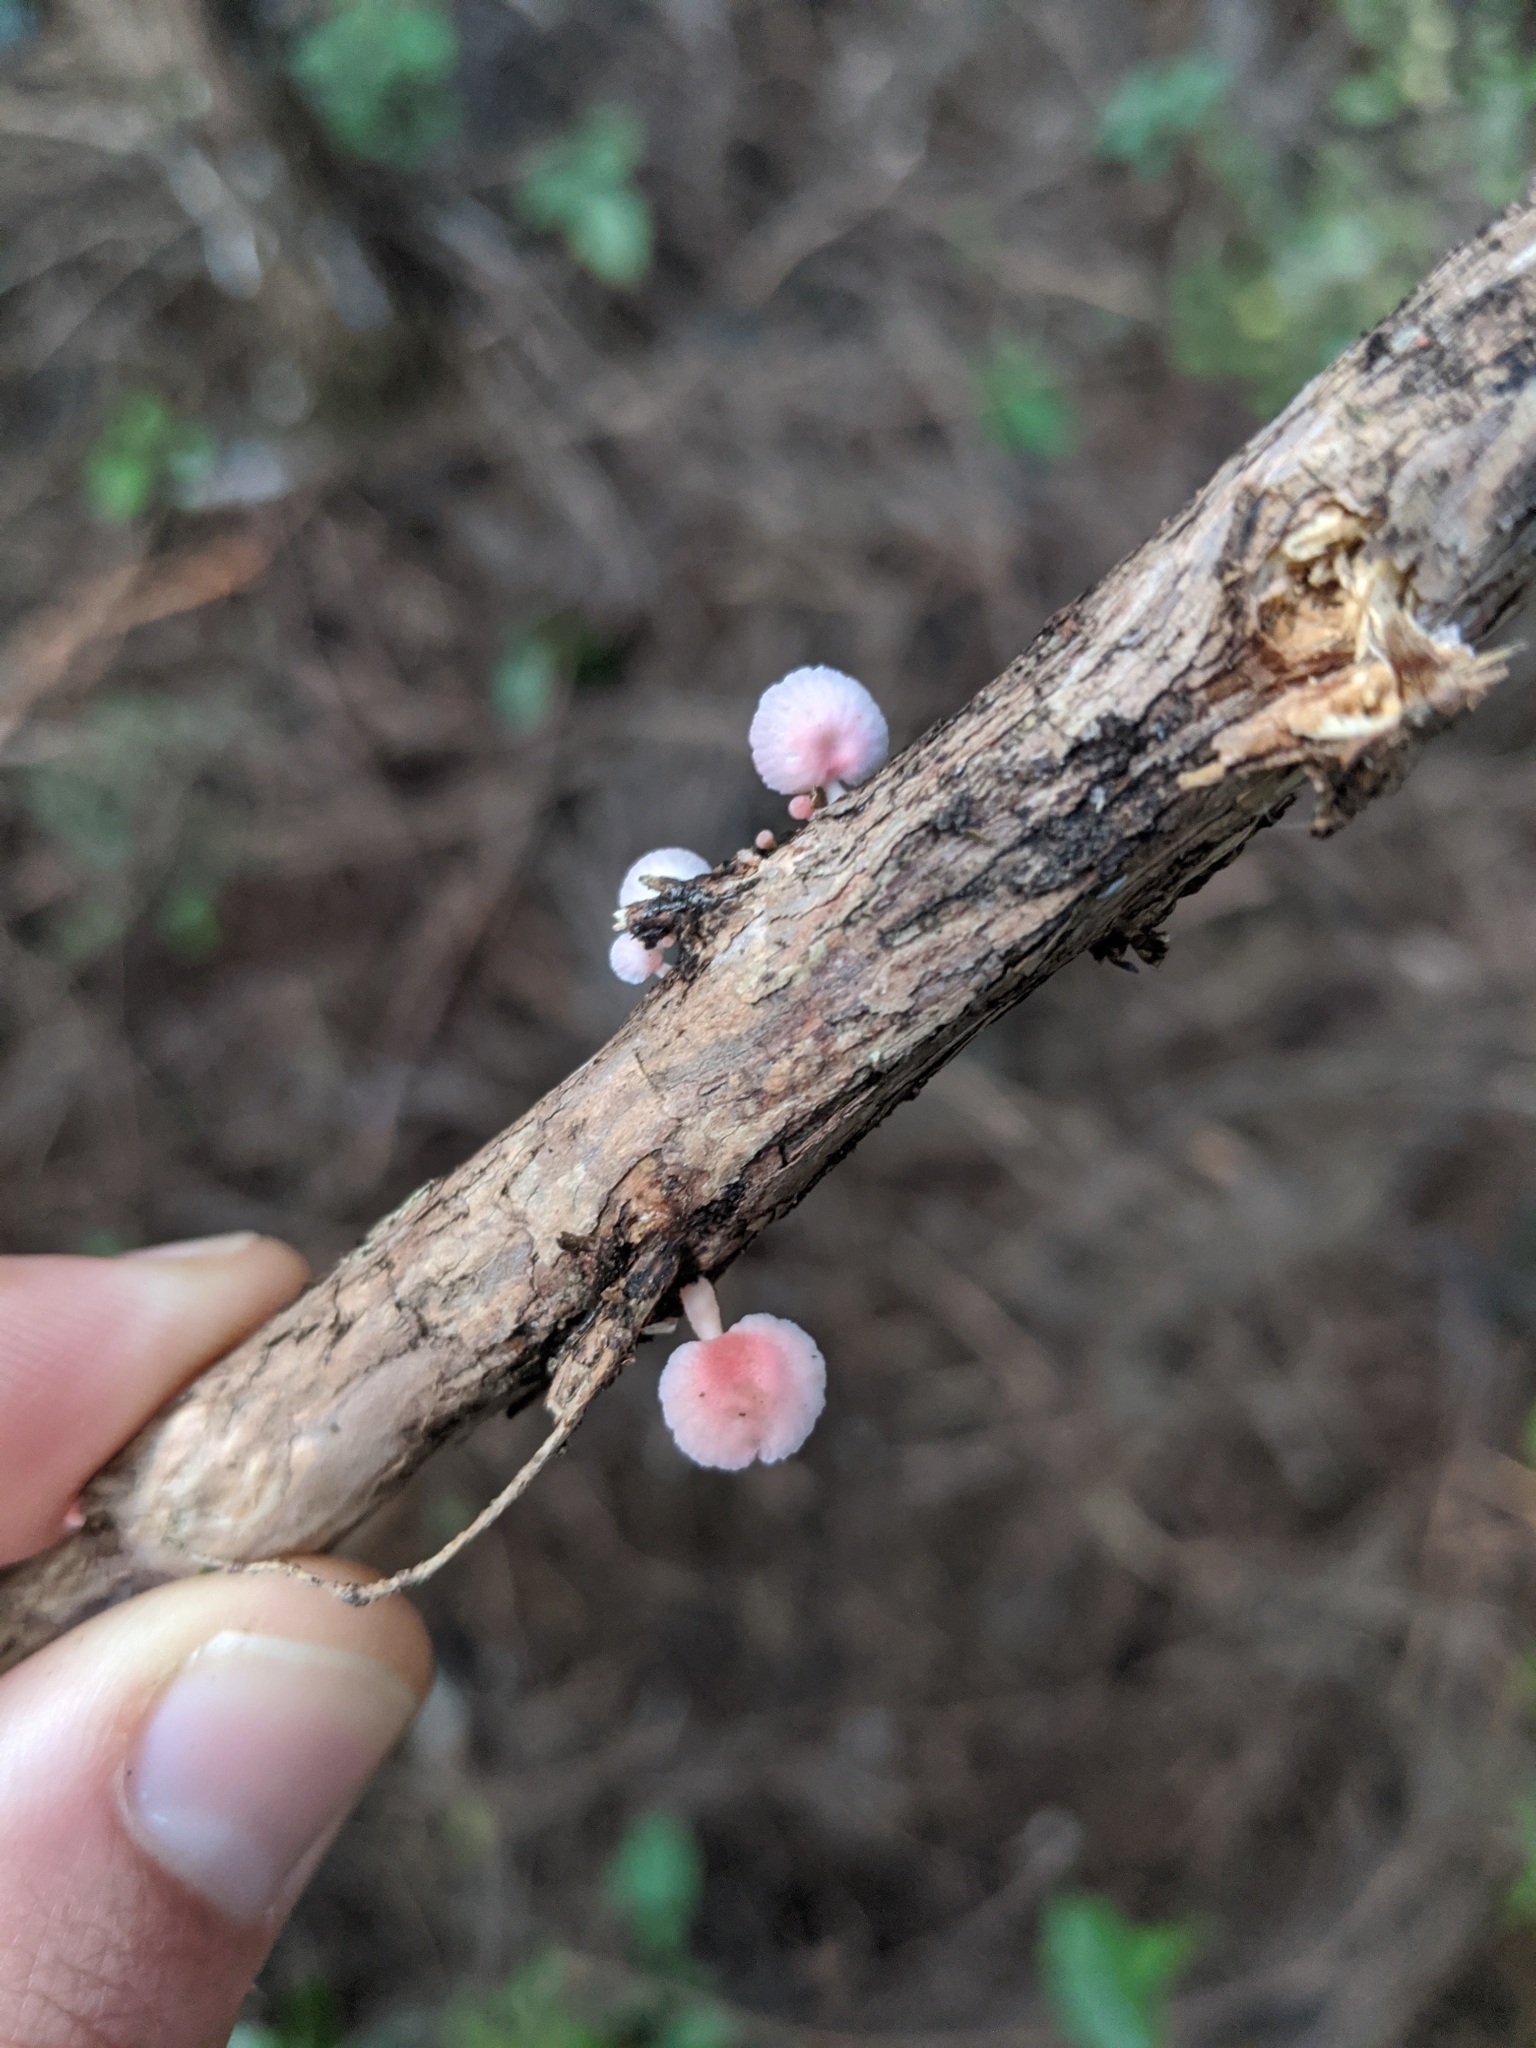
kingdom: Fungi
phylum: Basidiomycota
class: Agaricomycetes
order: Agaricales
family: Mycenaceae
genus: Mycena
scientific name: Mycena roseoflava
